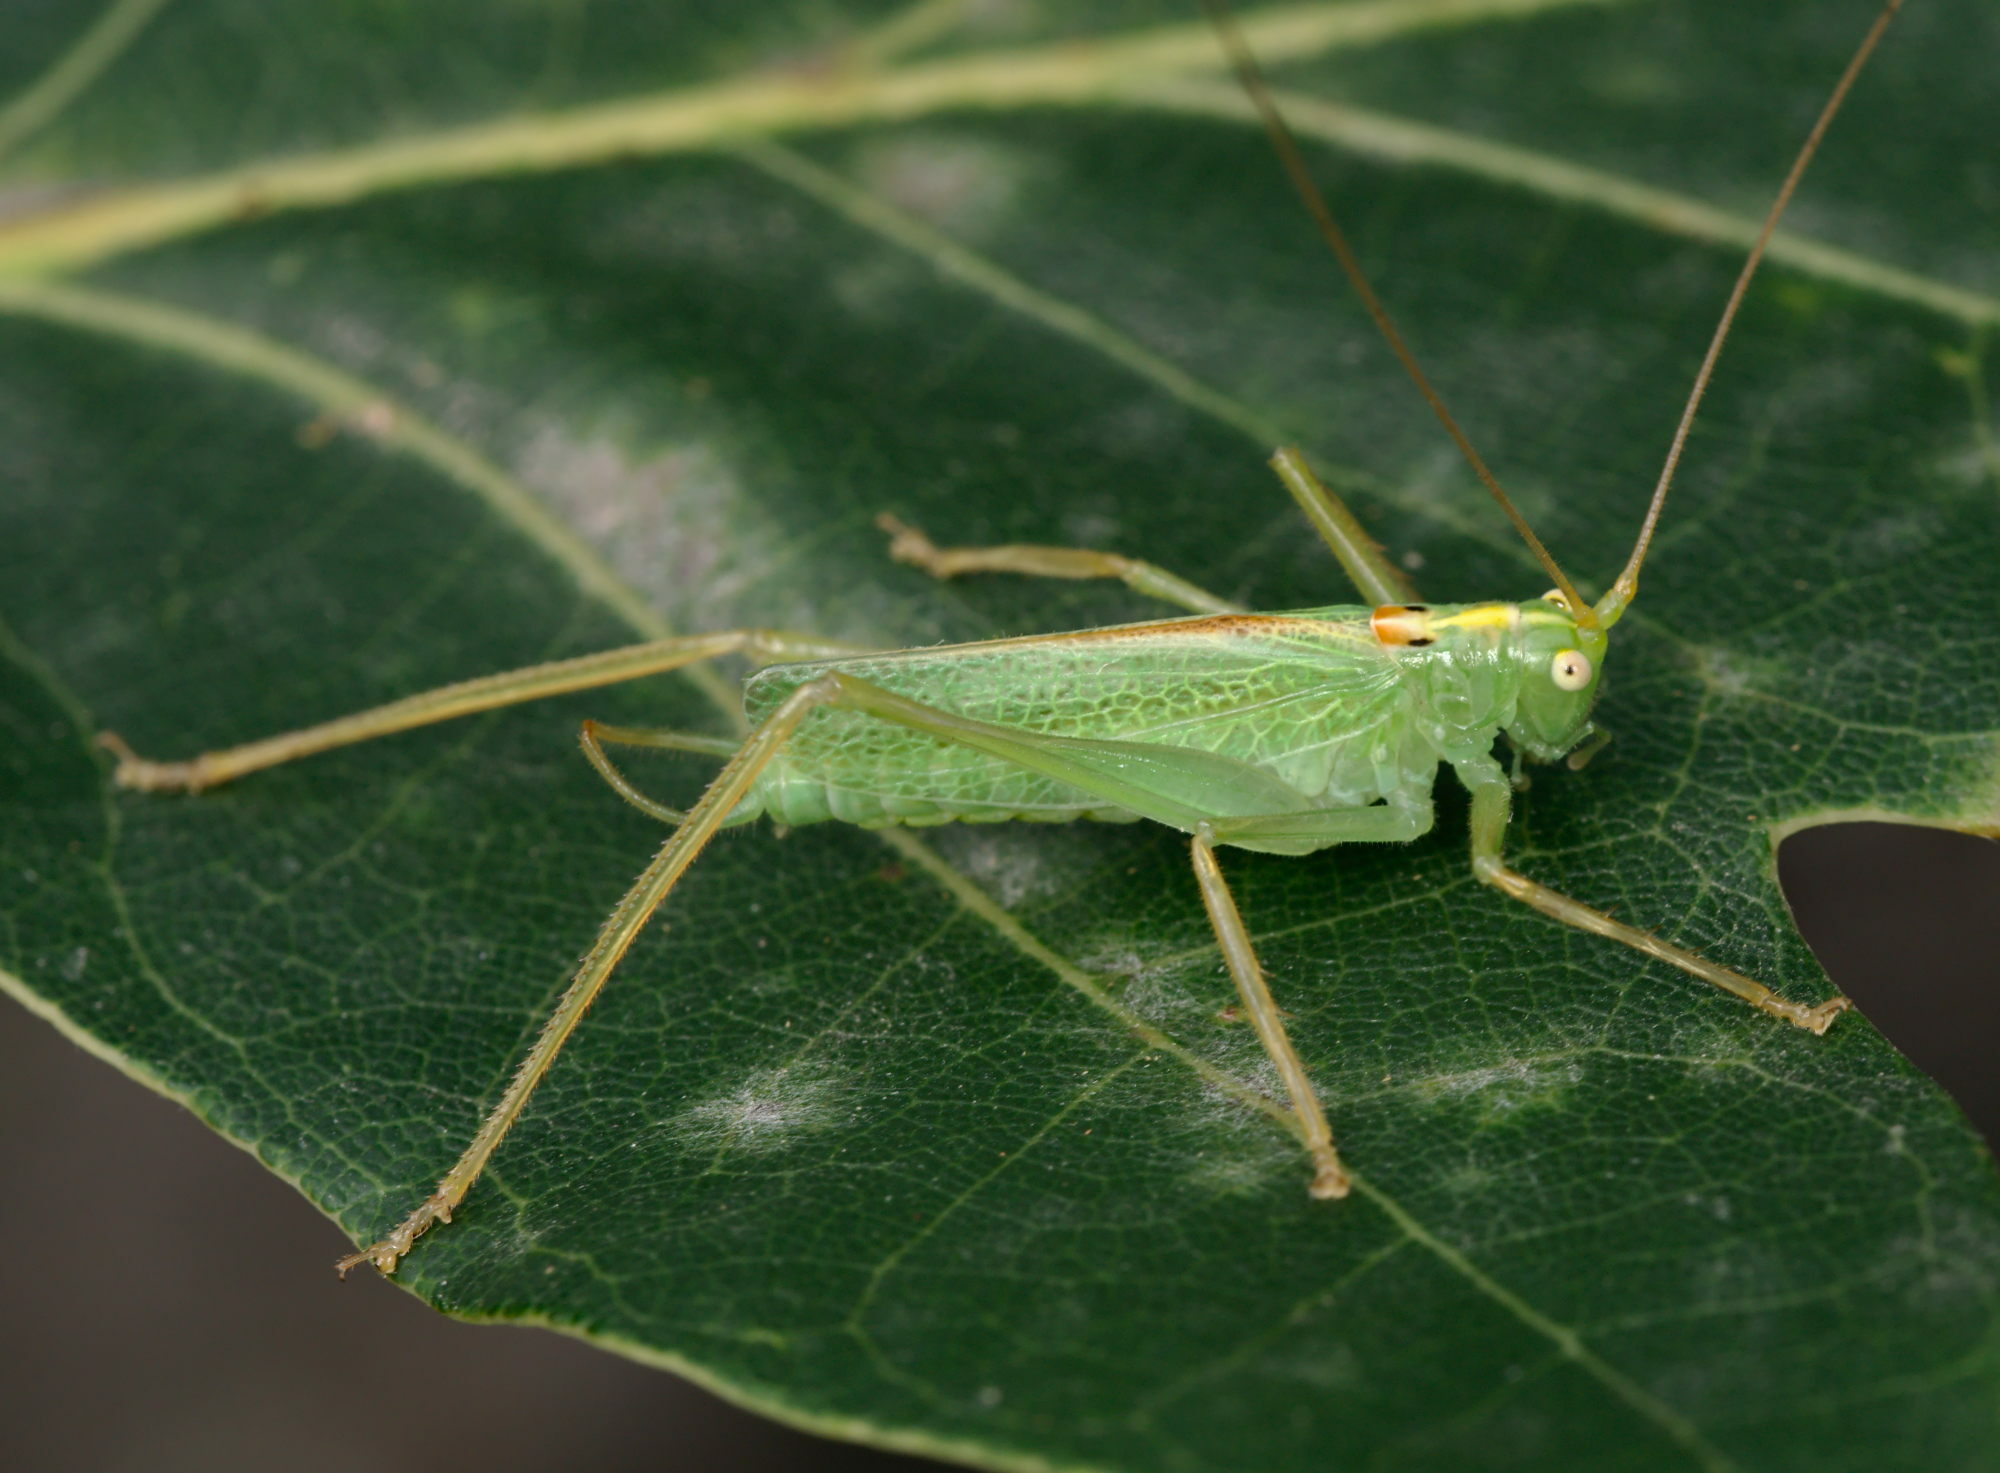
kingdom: Animalia
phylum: Arthropoda
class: Insecta
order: Orthoptera
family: Tettigoniidae
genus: Meconema
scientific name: Meconema thalassinum
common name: Oak bush-cricket
